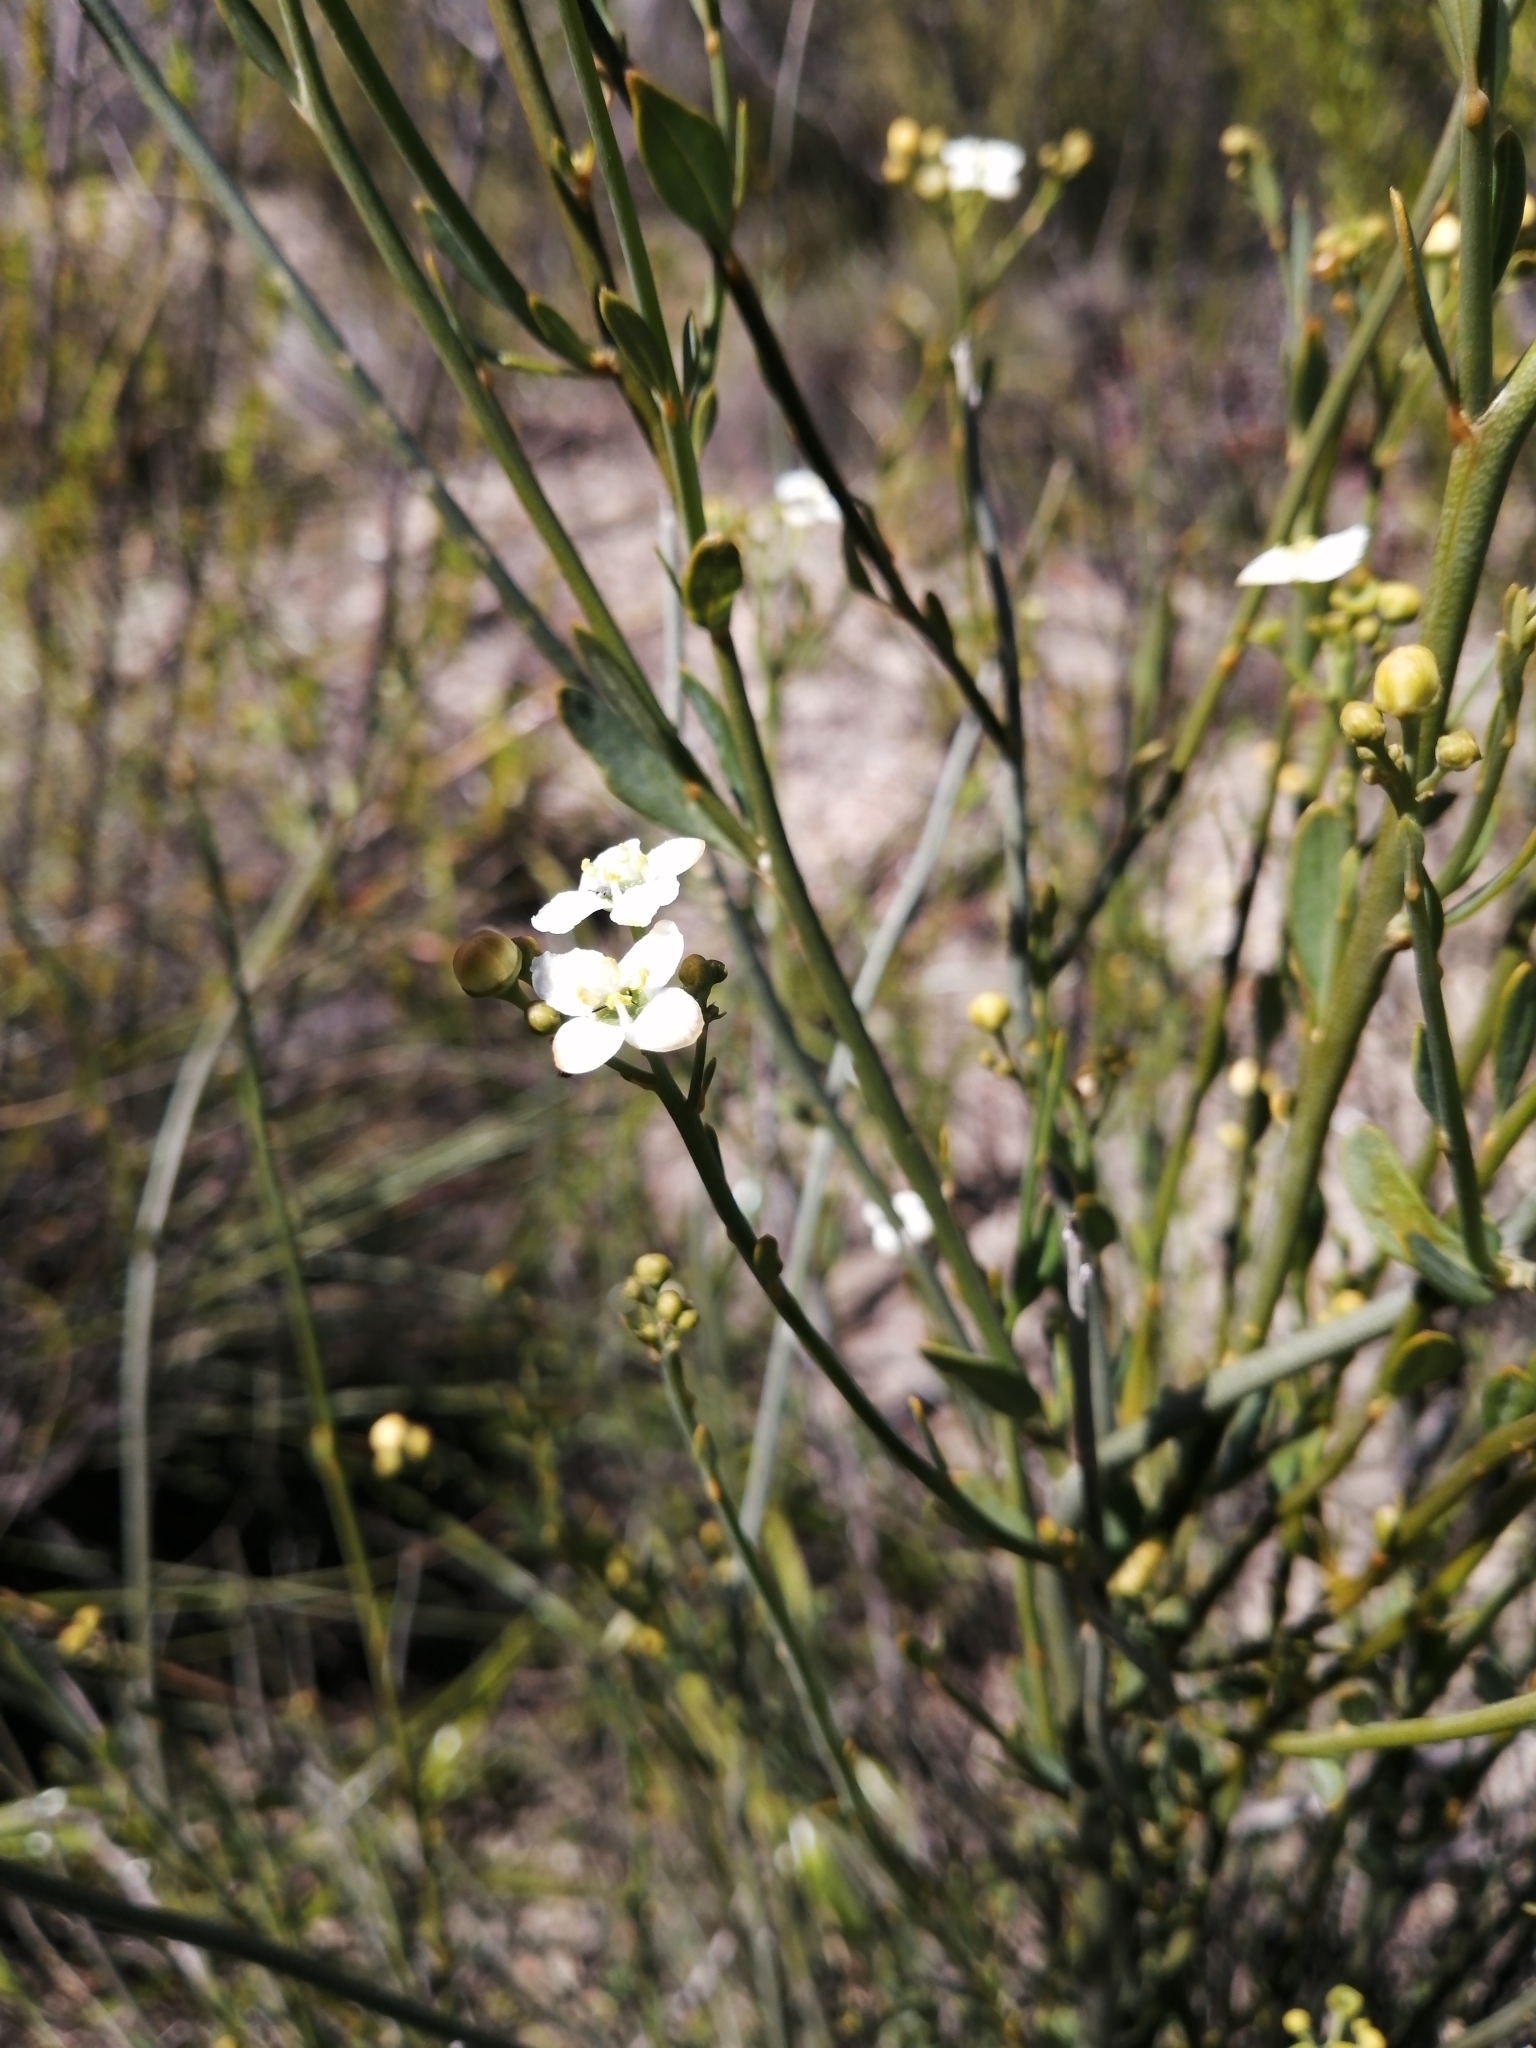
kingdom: Plantae
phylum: Tracheophyta
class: Magnoliopsida
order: Solanales
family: Montiniaceae
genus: Montinia
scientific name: Montinia caryophyllacea
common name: Wild clove-bush
